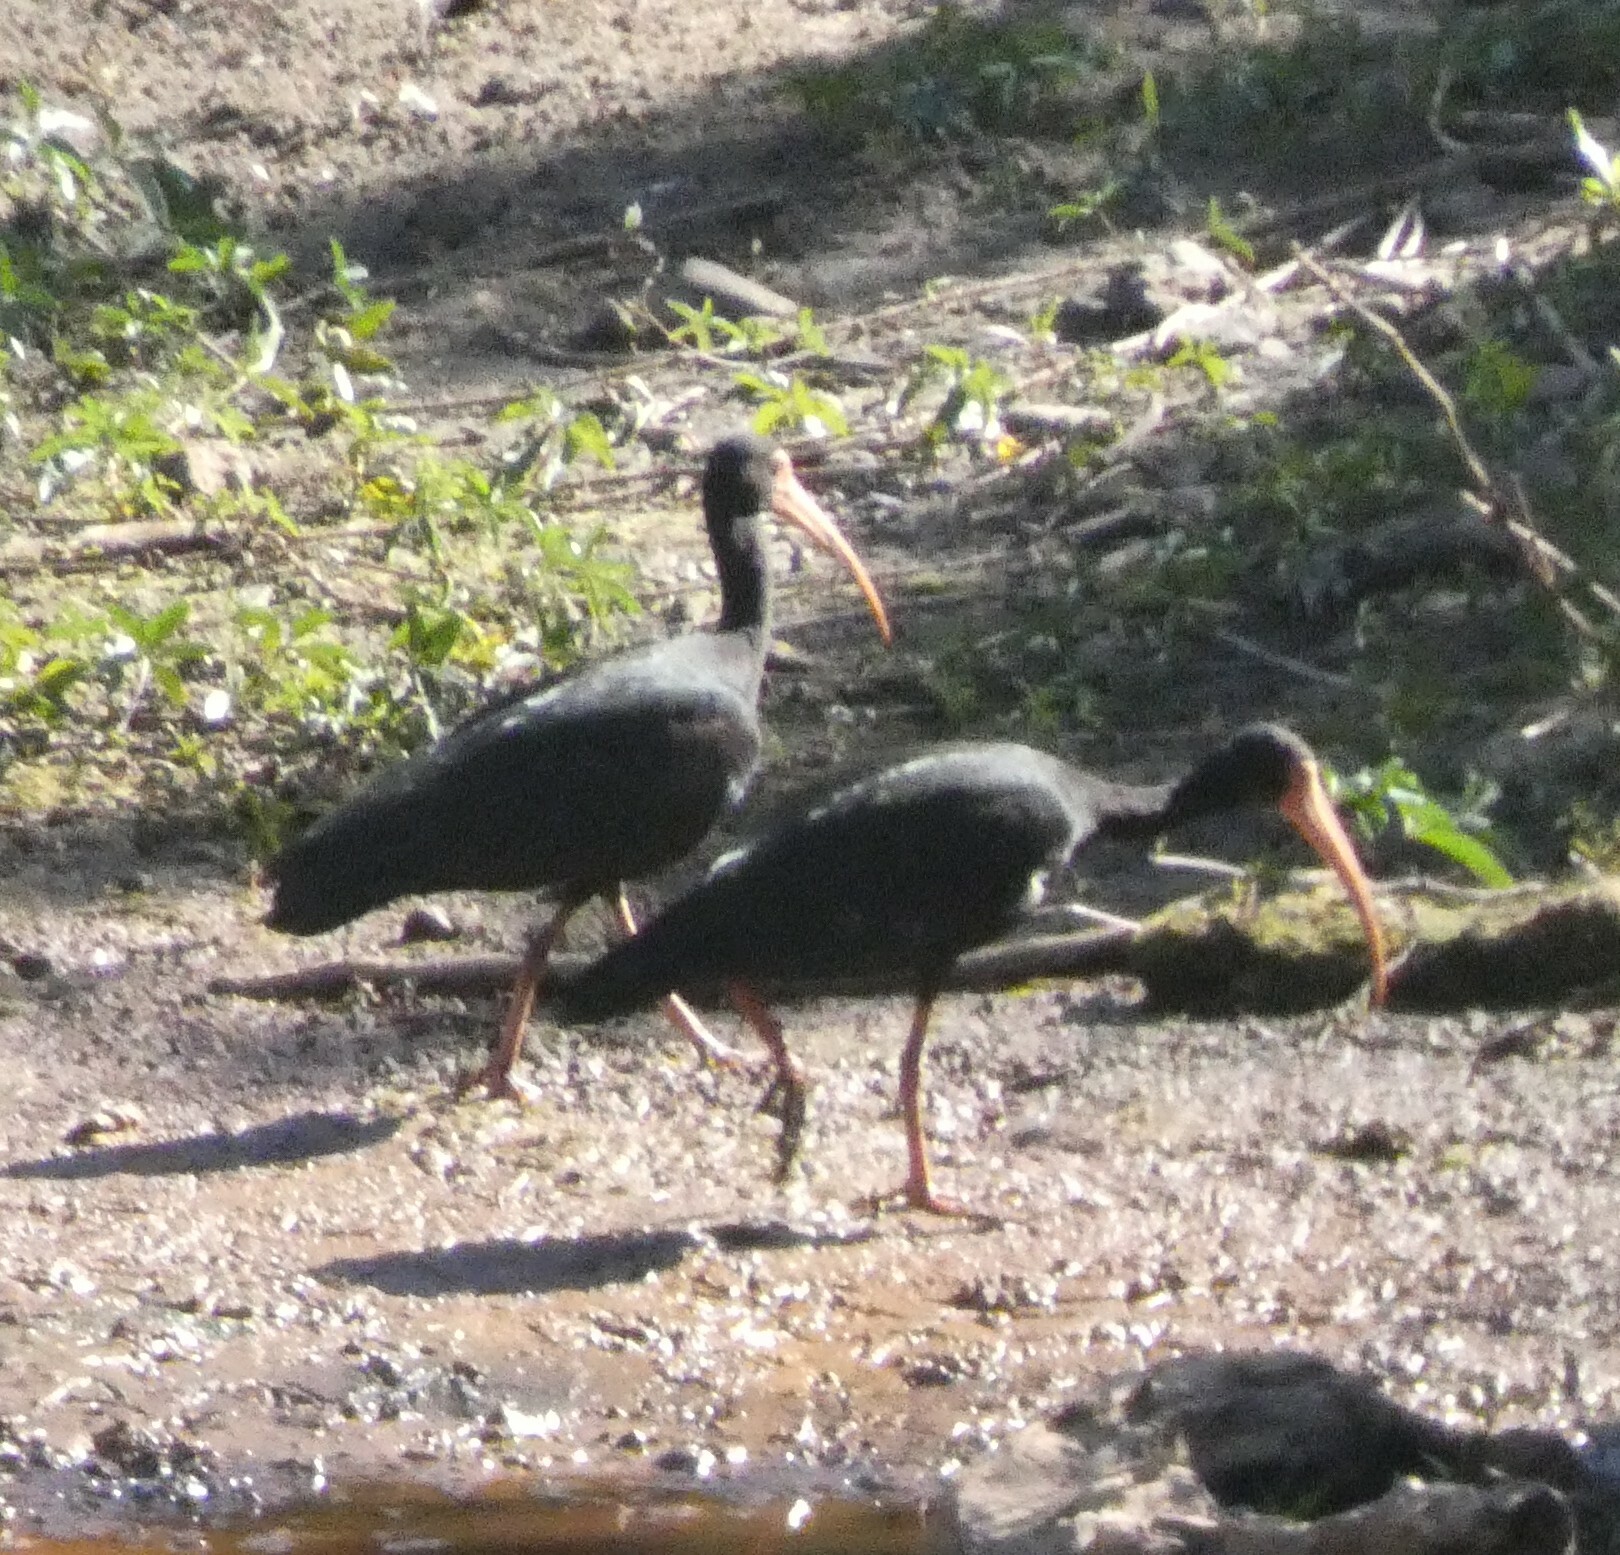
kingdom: Animalia
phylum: Chordata
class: Aves
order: Pelecaniformes
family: Threskiornithidae
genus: Phimosus
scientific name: Phimosus infuscatus
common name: Bare-faced ibis
